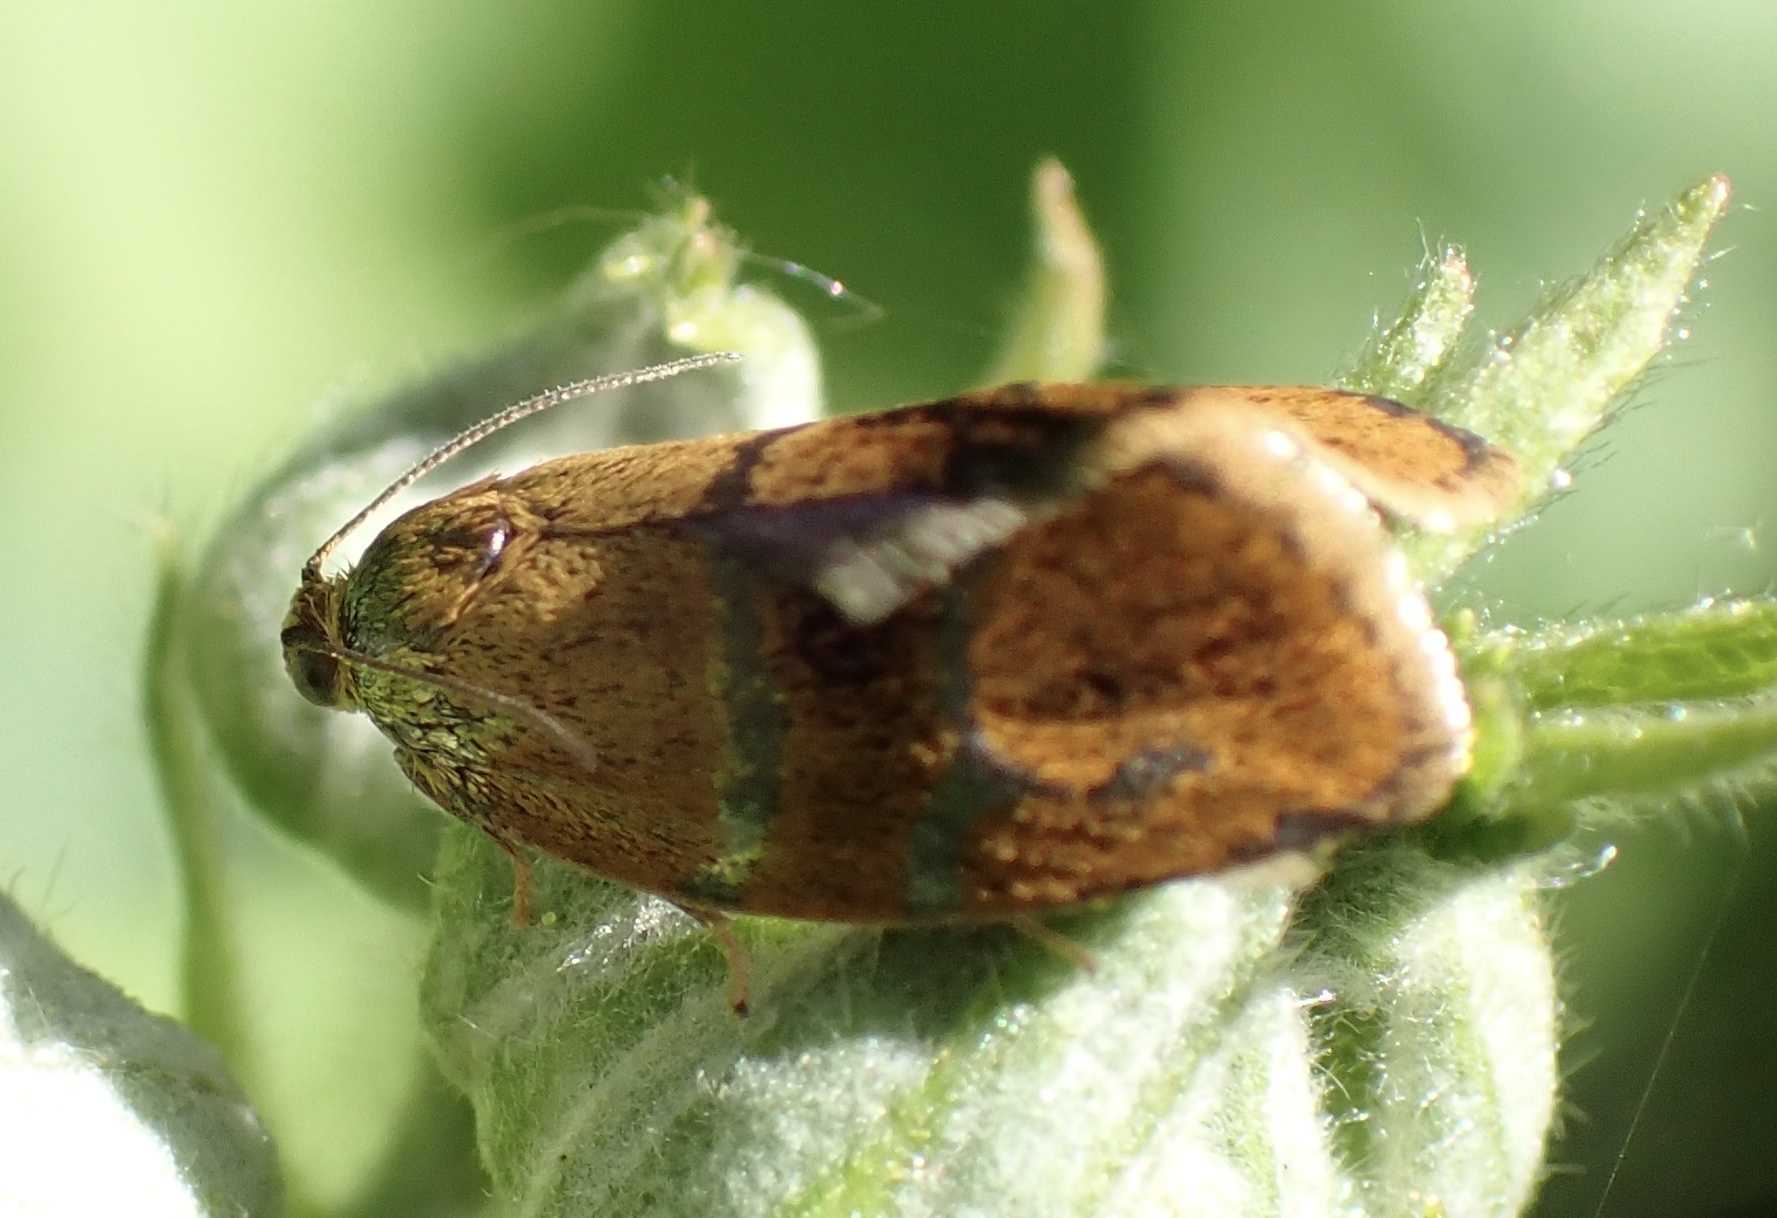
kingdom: Animalia
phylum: Arthropoda
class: Insecta
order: Lepidoptera
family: Tortricidae
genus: Ptycholoma
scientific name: Ptycholoma lecheana
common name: Leches twist moth
